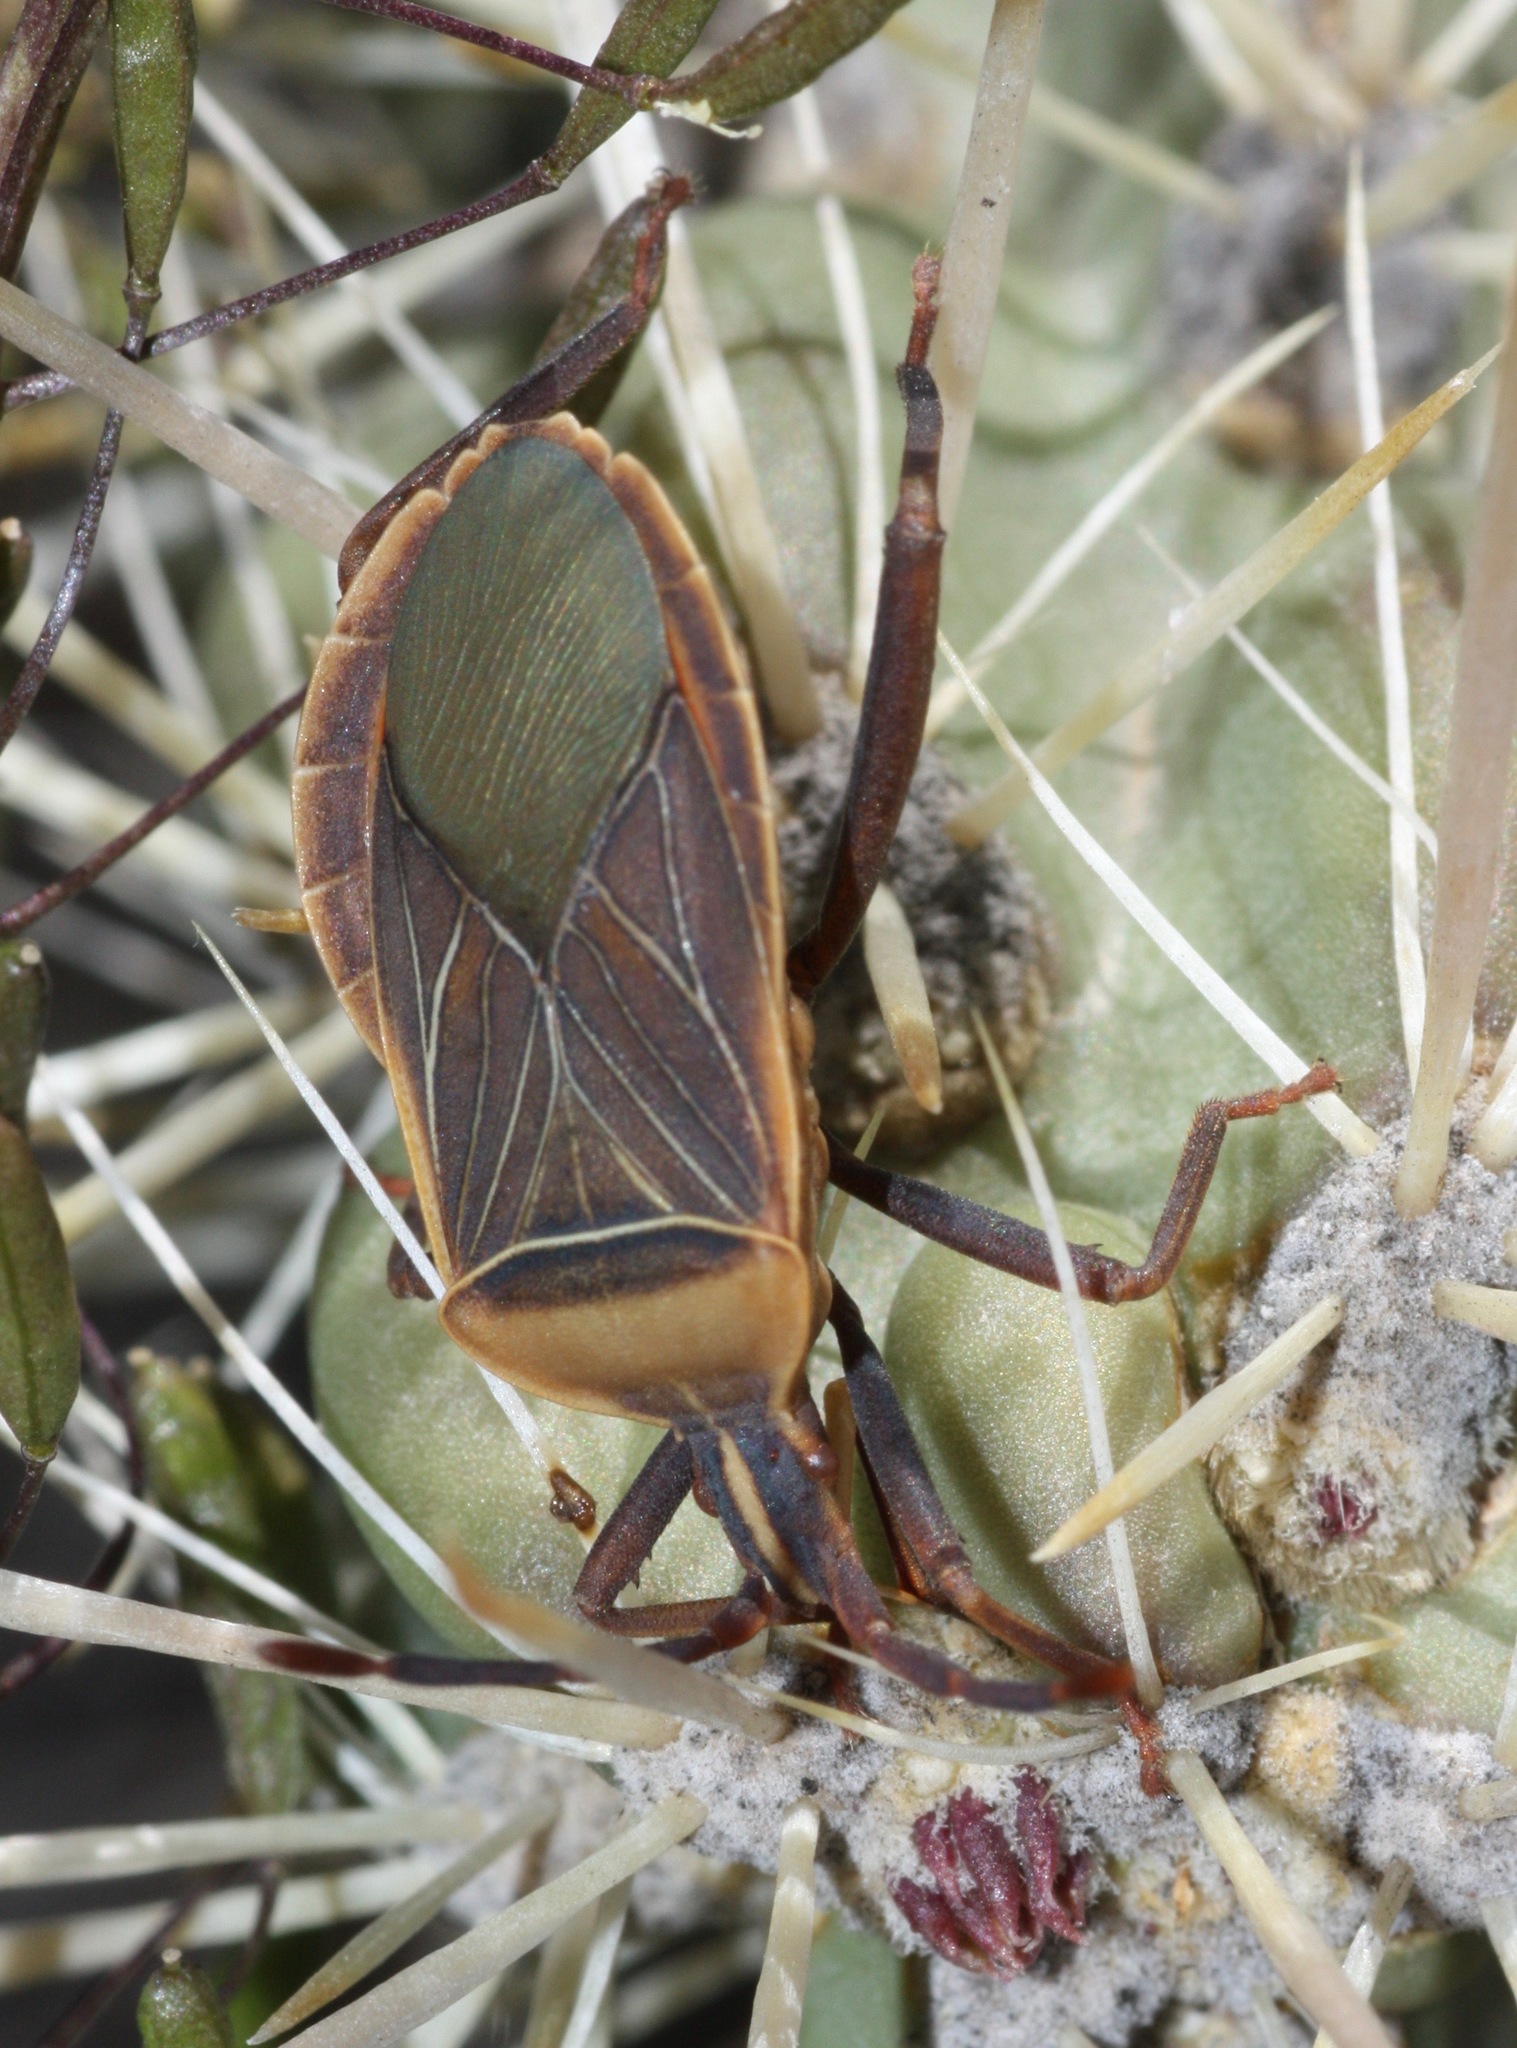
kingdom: Animalia
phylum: Arthropoda
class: Insecta
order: Hemiptera
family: Coreidae
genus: Chelinidea
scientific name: Chelinidea vittiger
